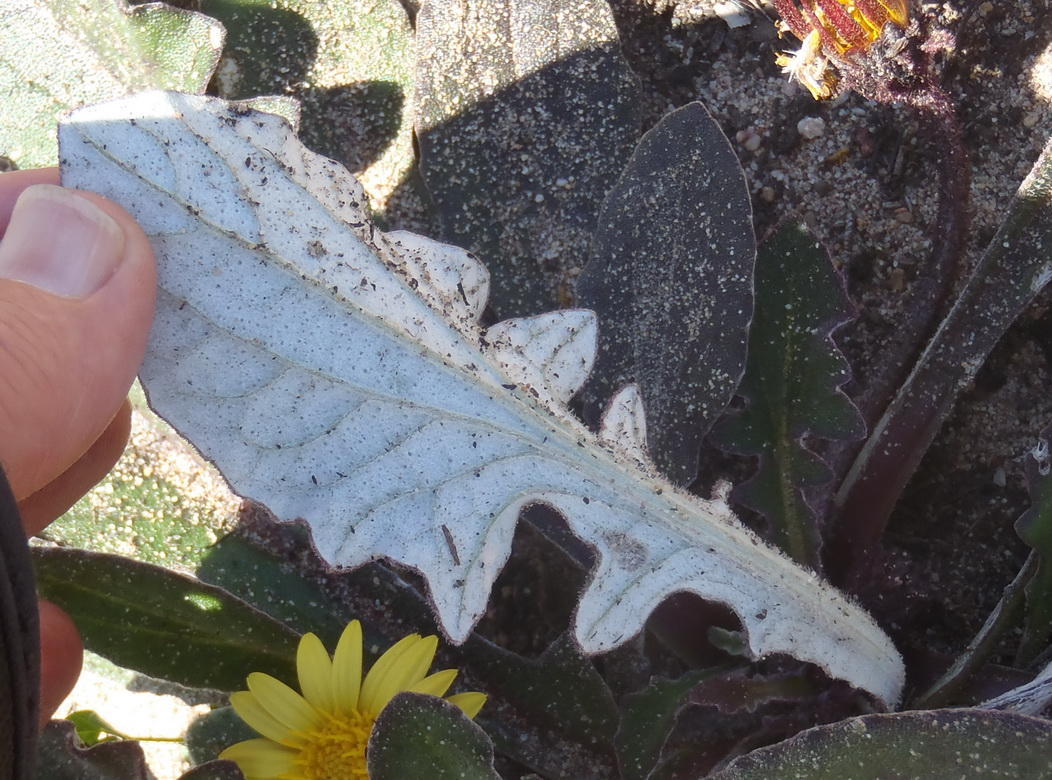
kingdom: Plantae
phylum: Tracheophyta
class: Magnoliopsida
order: Asterales
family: Asteraceae
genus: Haplocarpha
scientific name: Haplocarpha lanata
